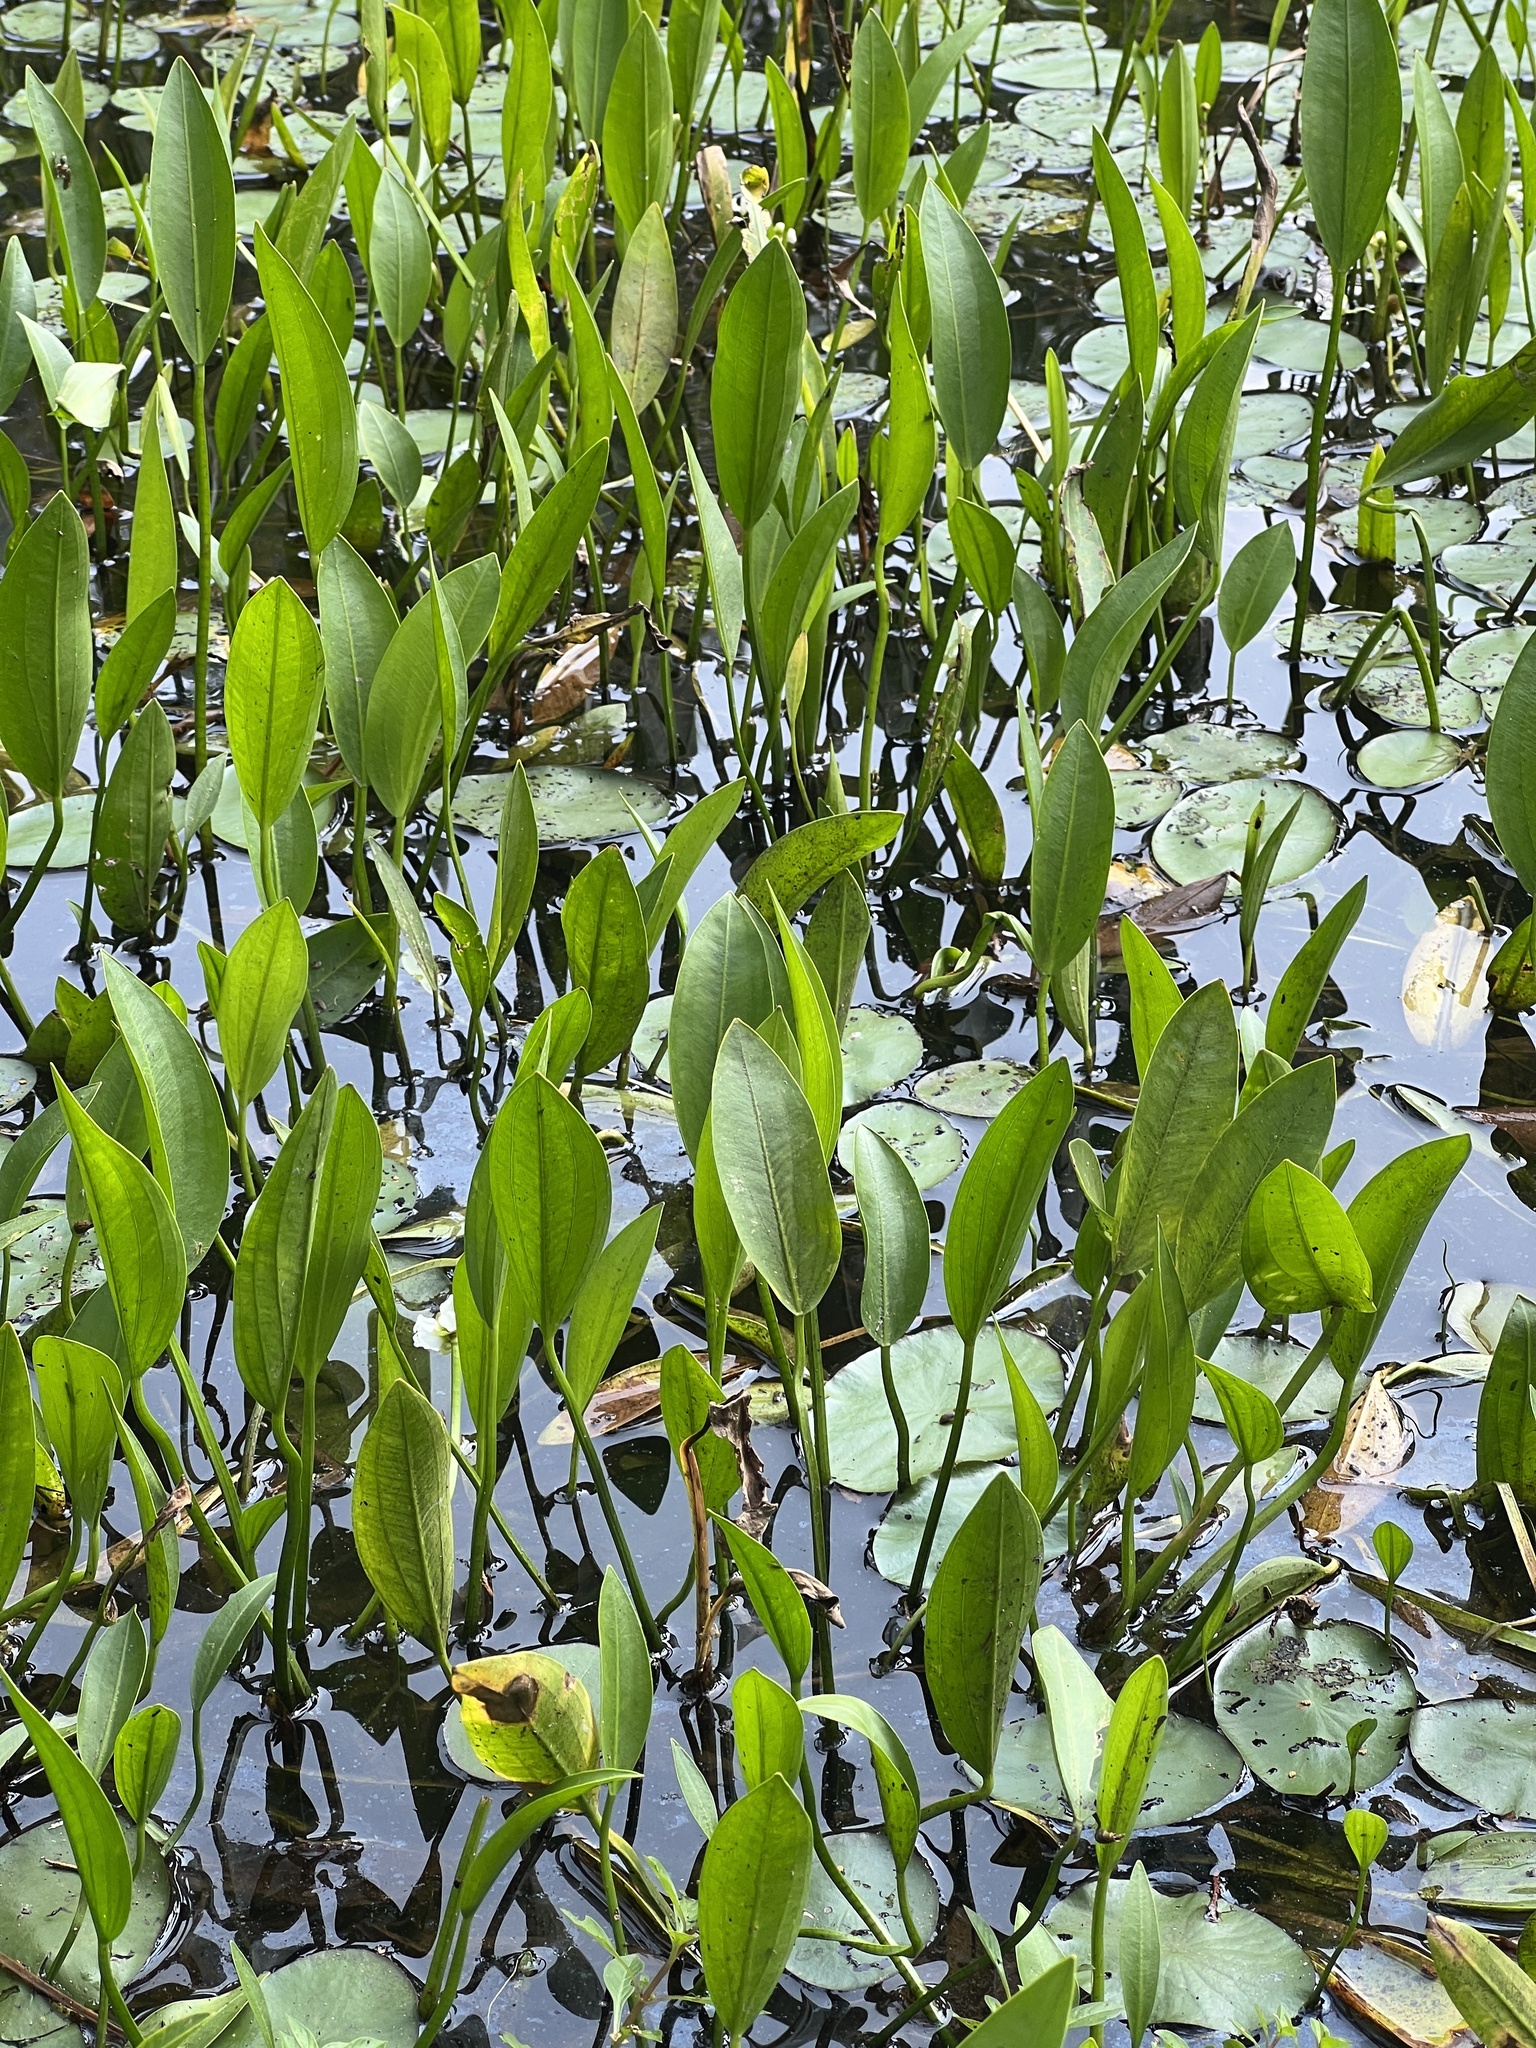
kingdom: Plantae
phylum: Tracheophyta
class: Liliopsida
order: Alismatales
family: Alismataceae
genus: Sagittaria
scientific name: Sagittaria rigida
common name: Canadian arrowhead
